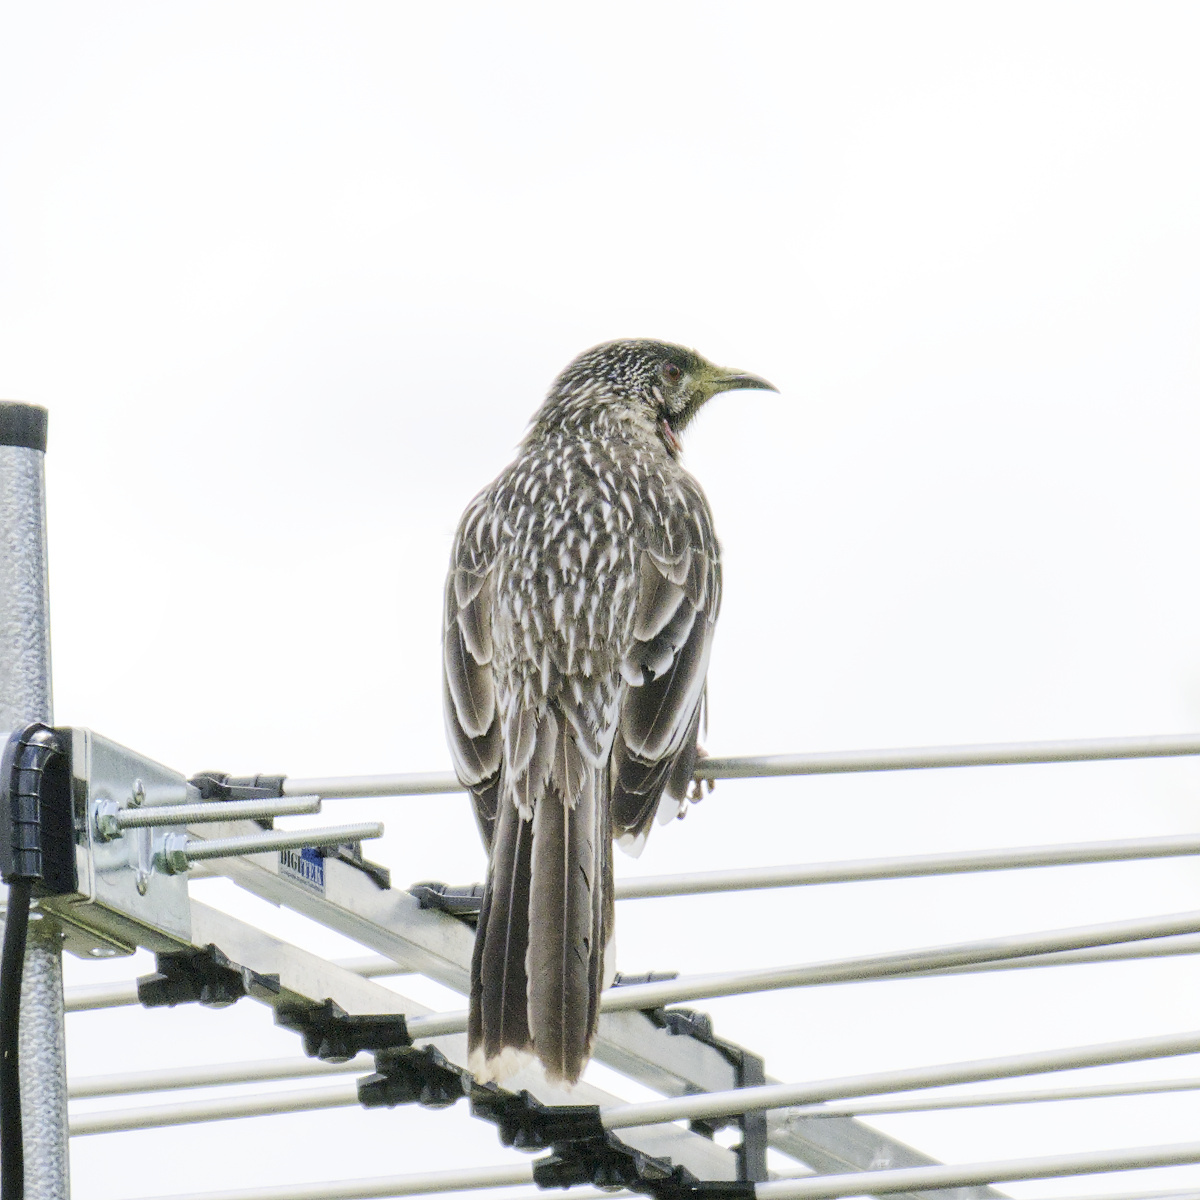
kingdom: Animalia
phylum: Chordata
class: Aves
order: Passeriformes
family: Meliphagidae
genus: Anthochaera
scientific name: Anthochaera carunculata
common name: Red wattlebird
